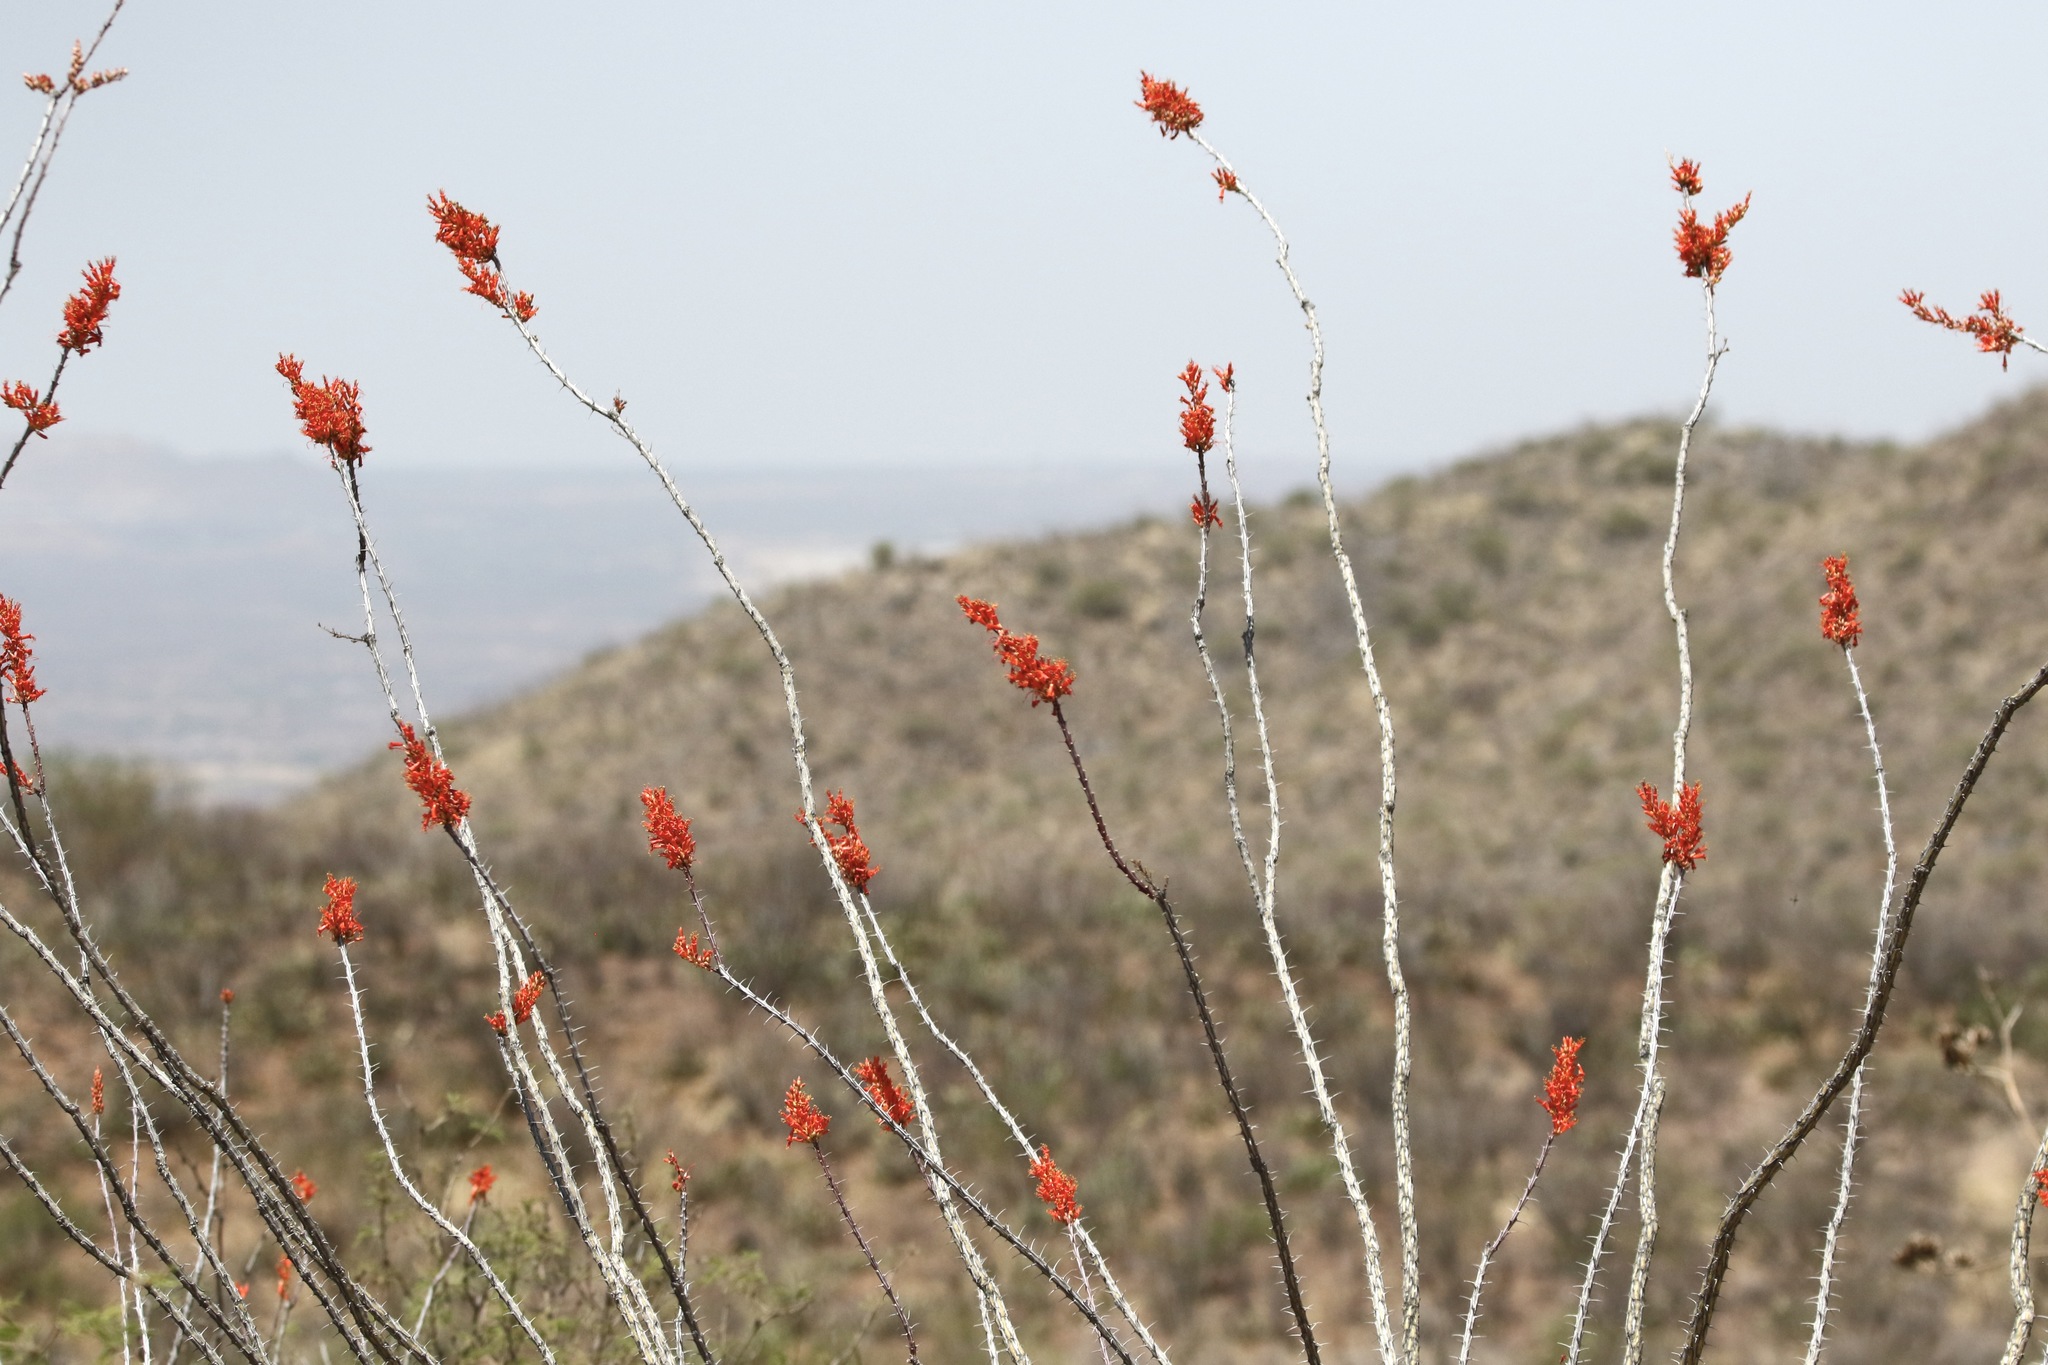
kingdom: Plantae
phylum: Tracheophyta
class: Magnoliopsida
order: Ericales
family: Fouquieriaceae
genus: Fouquieria
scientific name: Fouquieria splendens
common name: Vine-cactus
